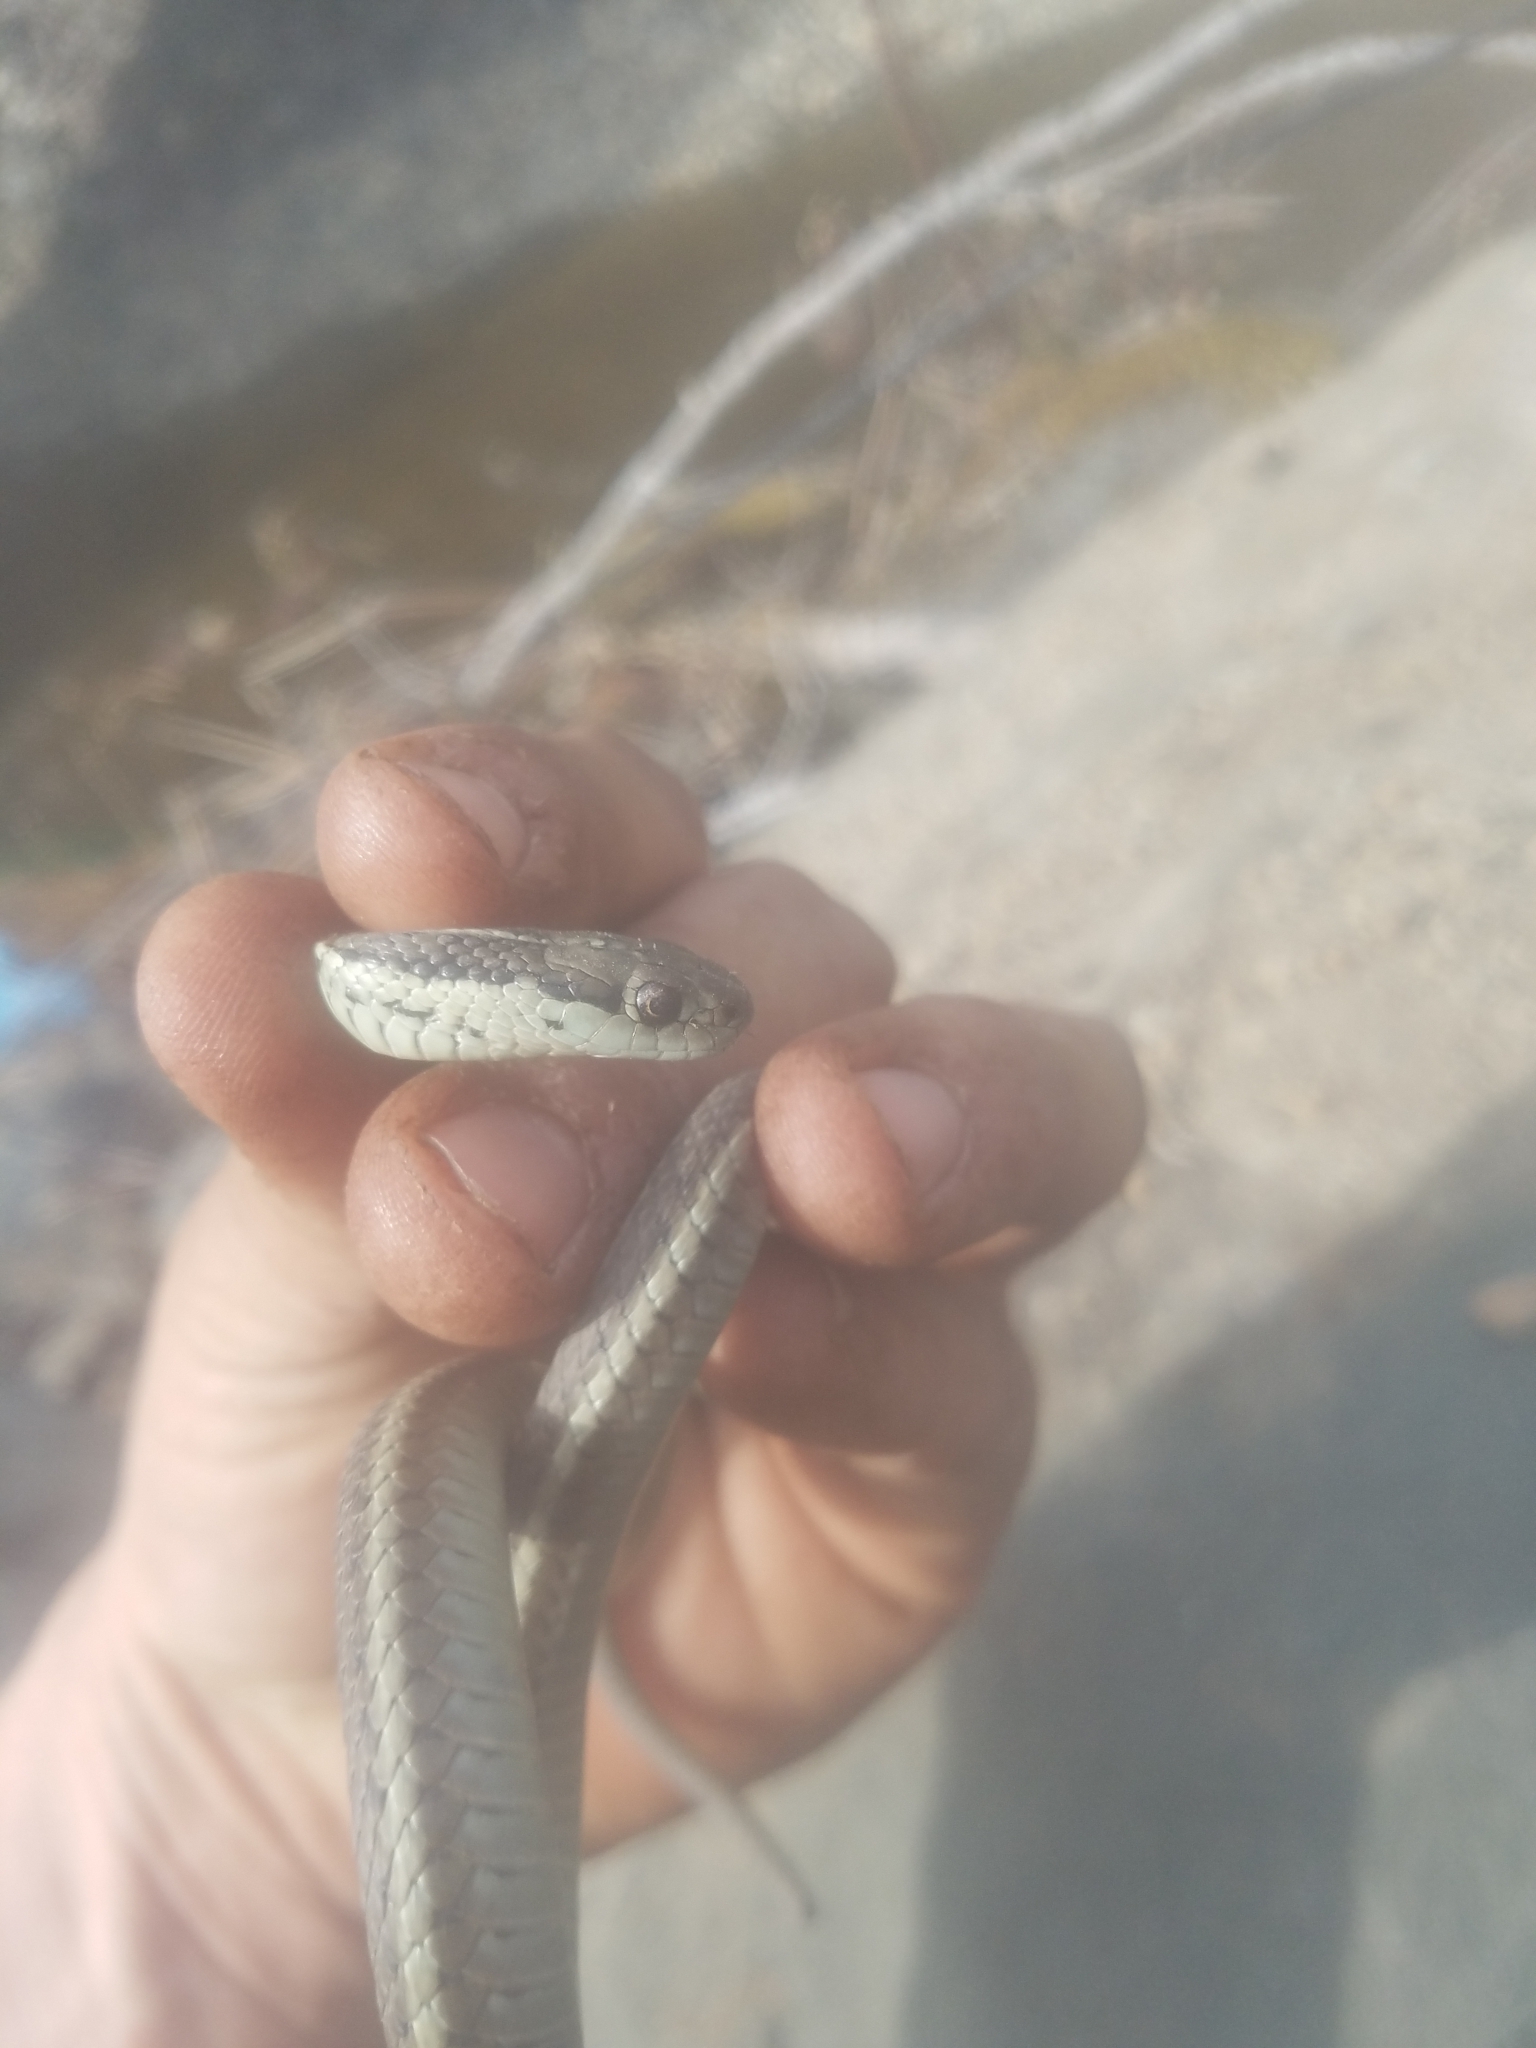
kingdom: Animalia
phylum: Chordata
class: Squamata
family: Colubridae
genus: Thamnophis
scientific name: Thamnophis ordinoides
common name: Northwestern garter snake
